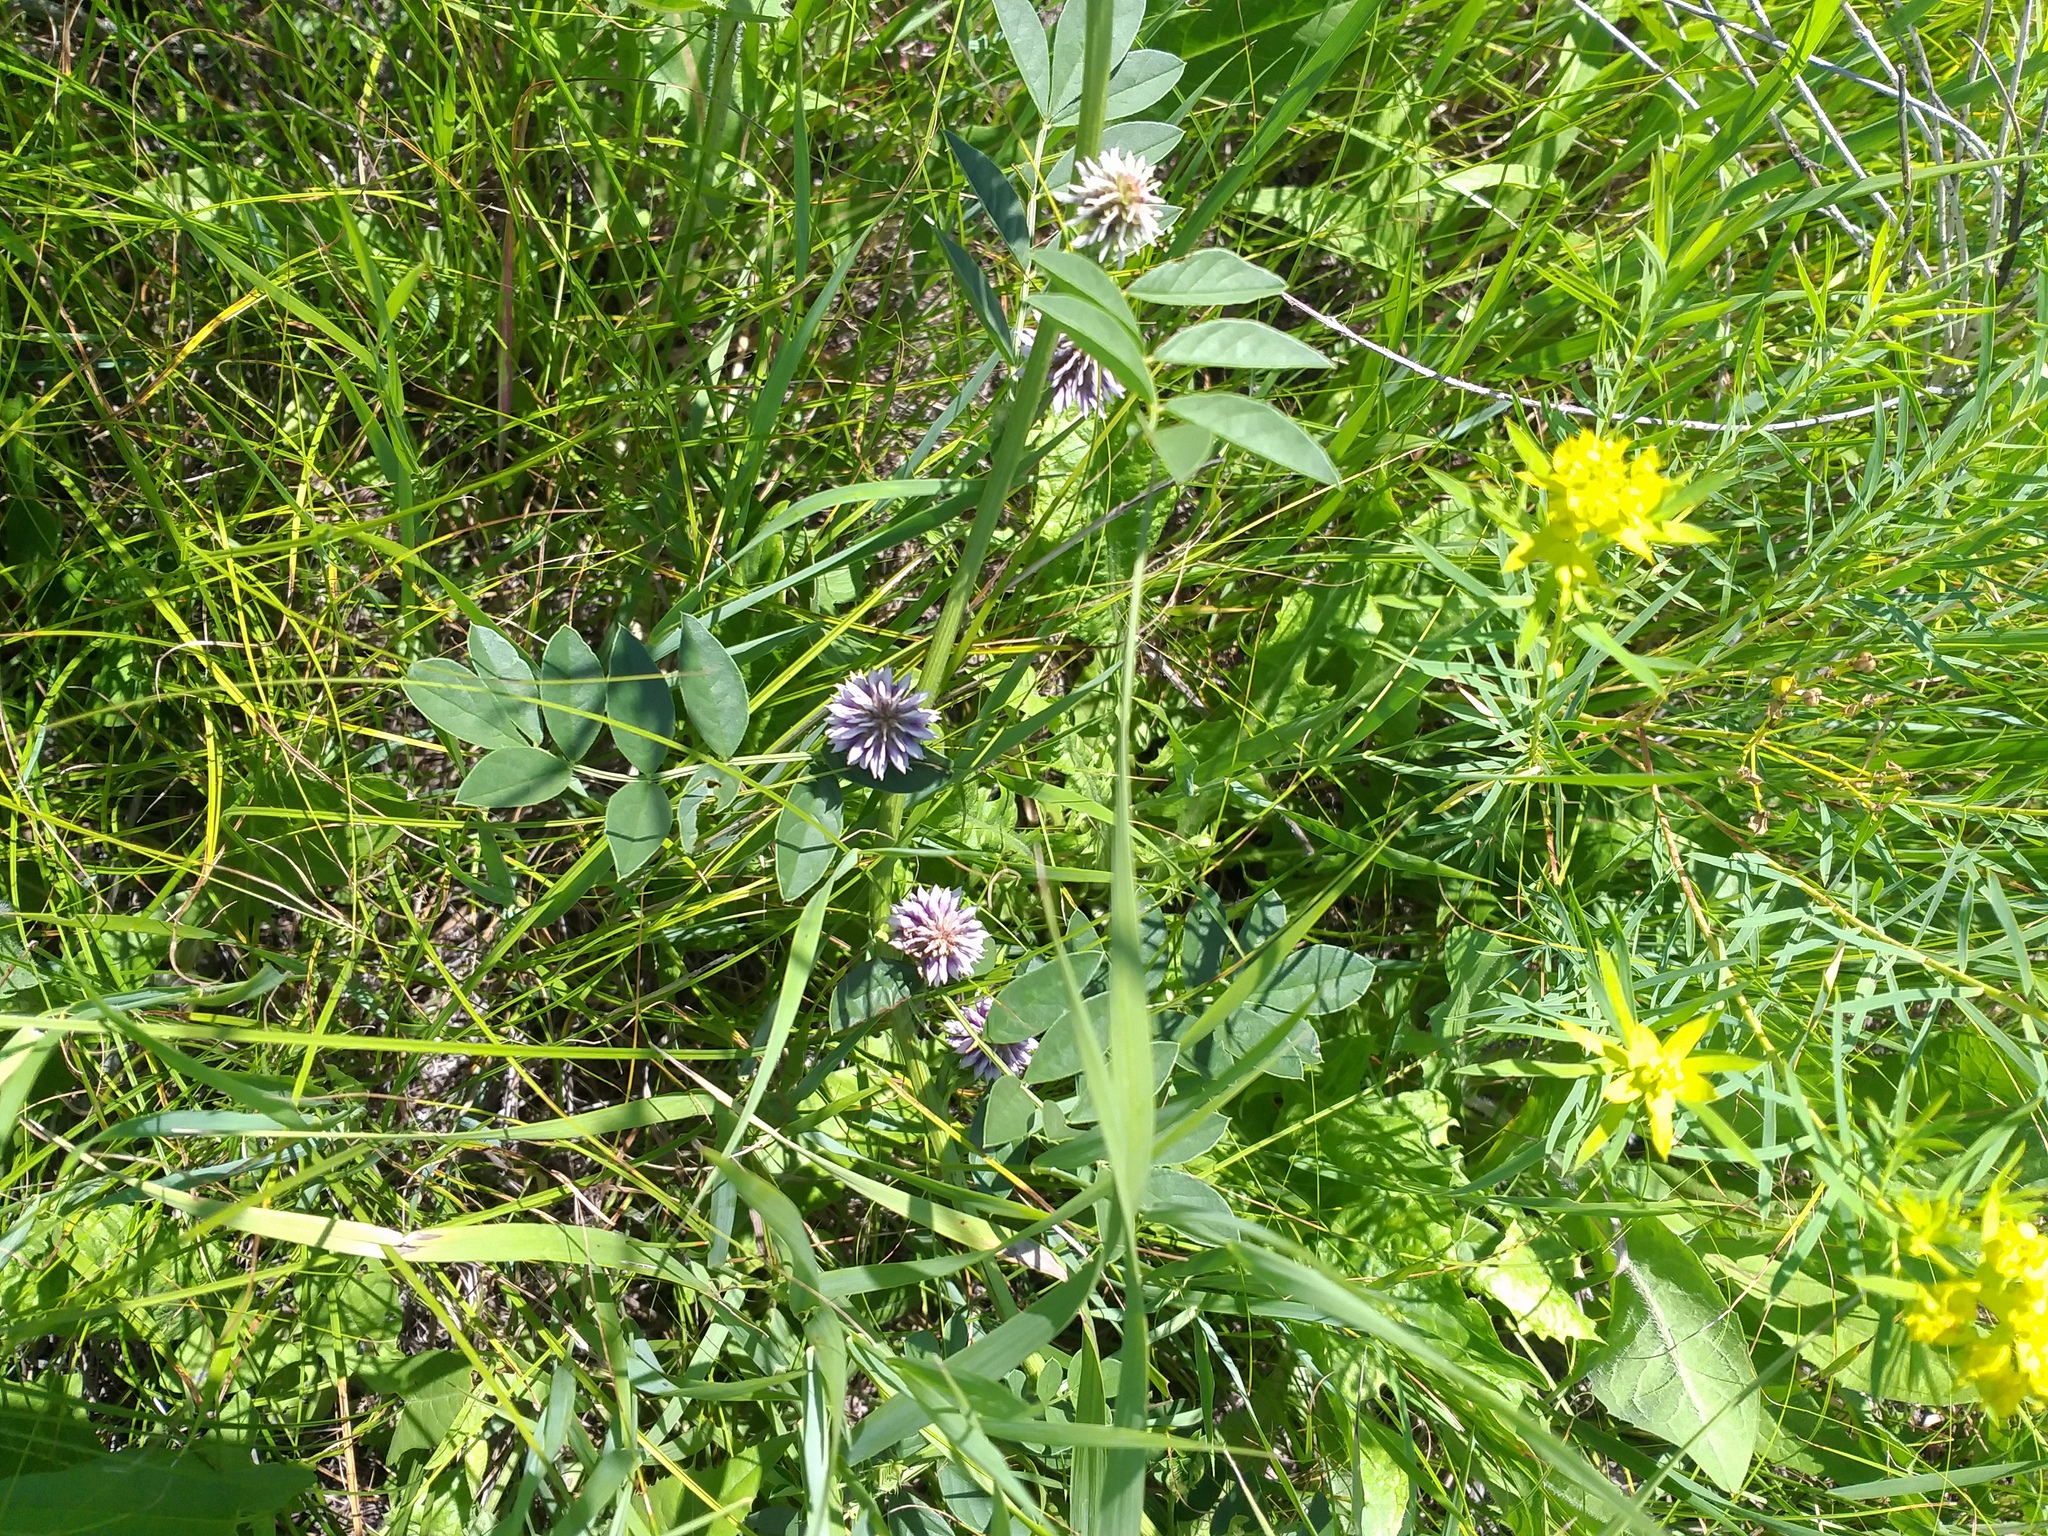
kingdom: Plantae
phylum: Tracheophyta
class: Magnoliopsida
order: Fabales
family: Fabaceae
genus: Glycyrrhiza
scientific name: Glycyrrhiza echinata
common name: German liquorice
